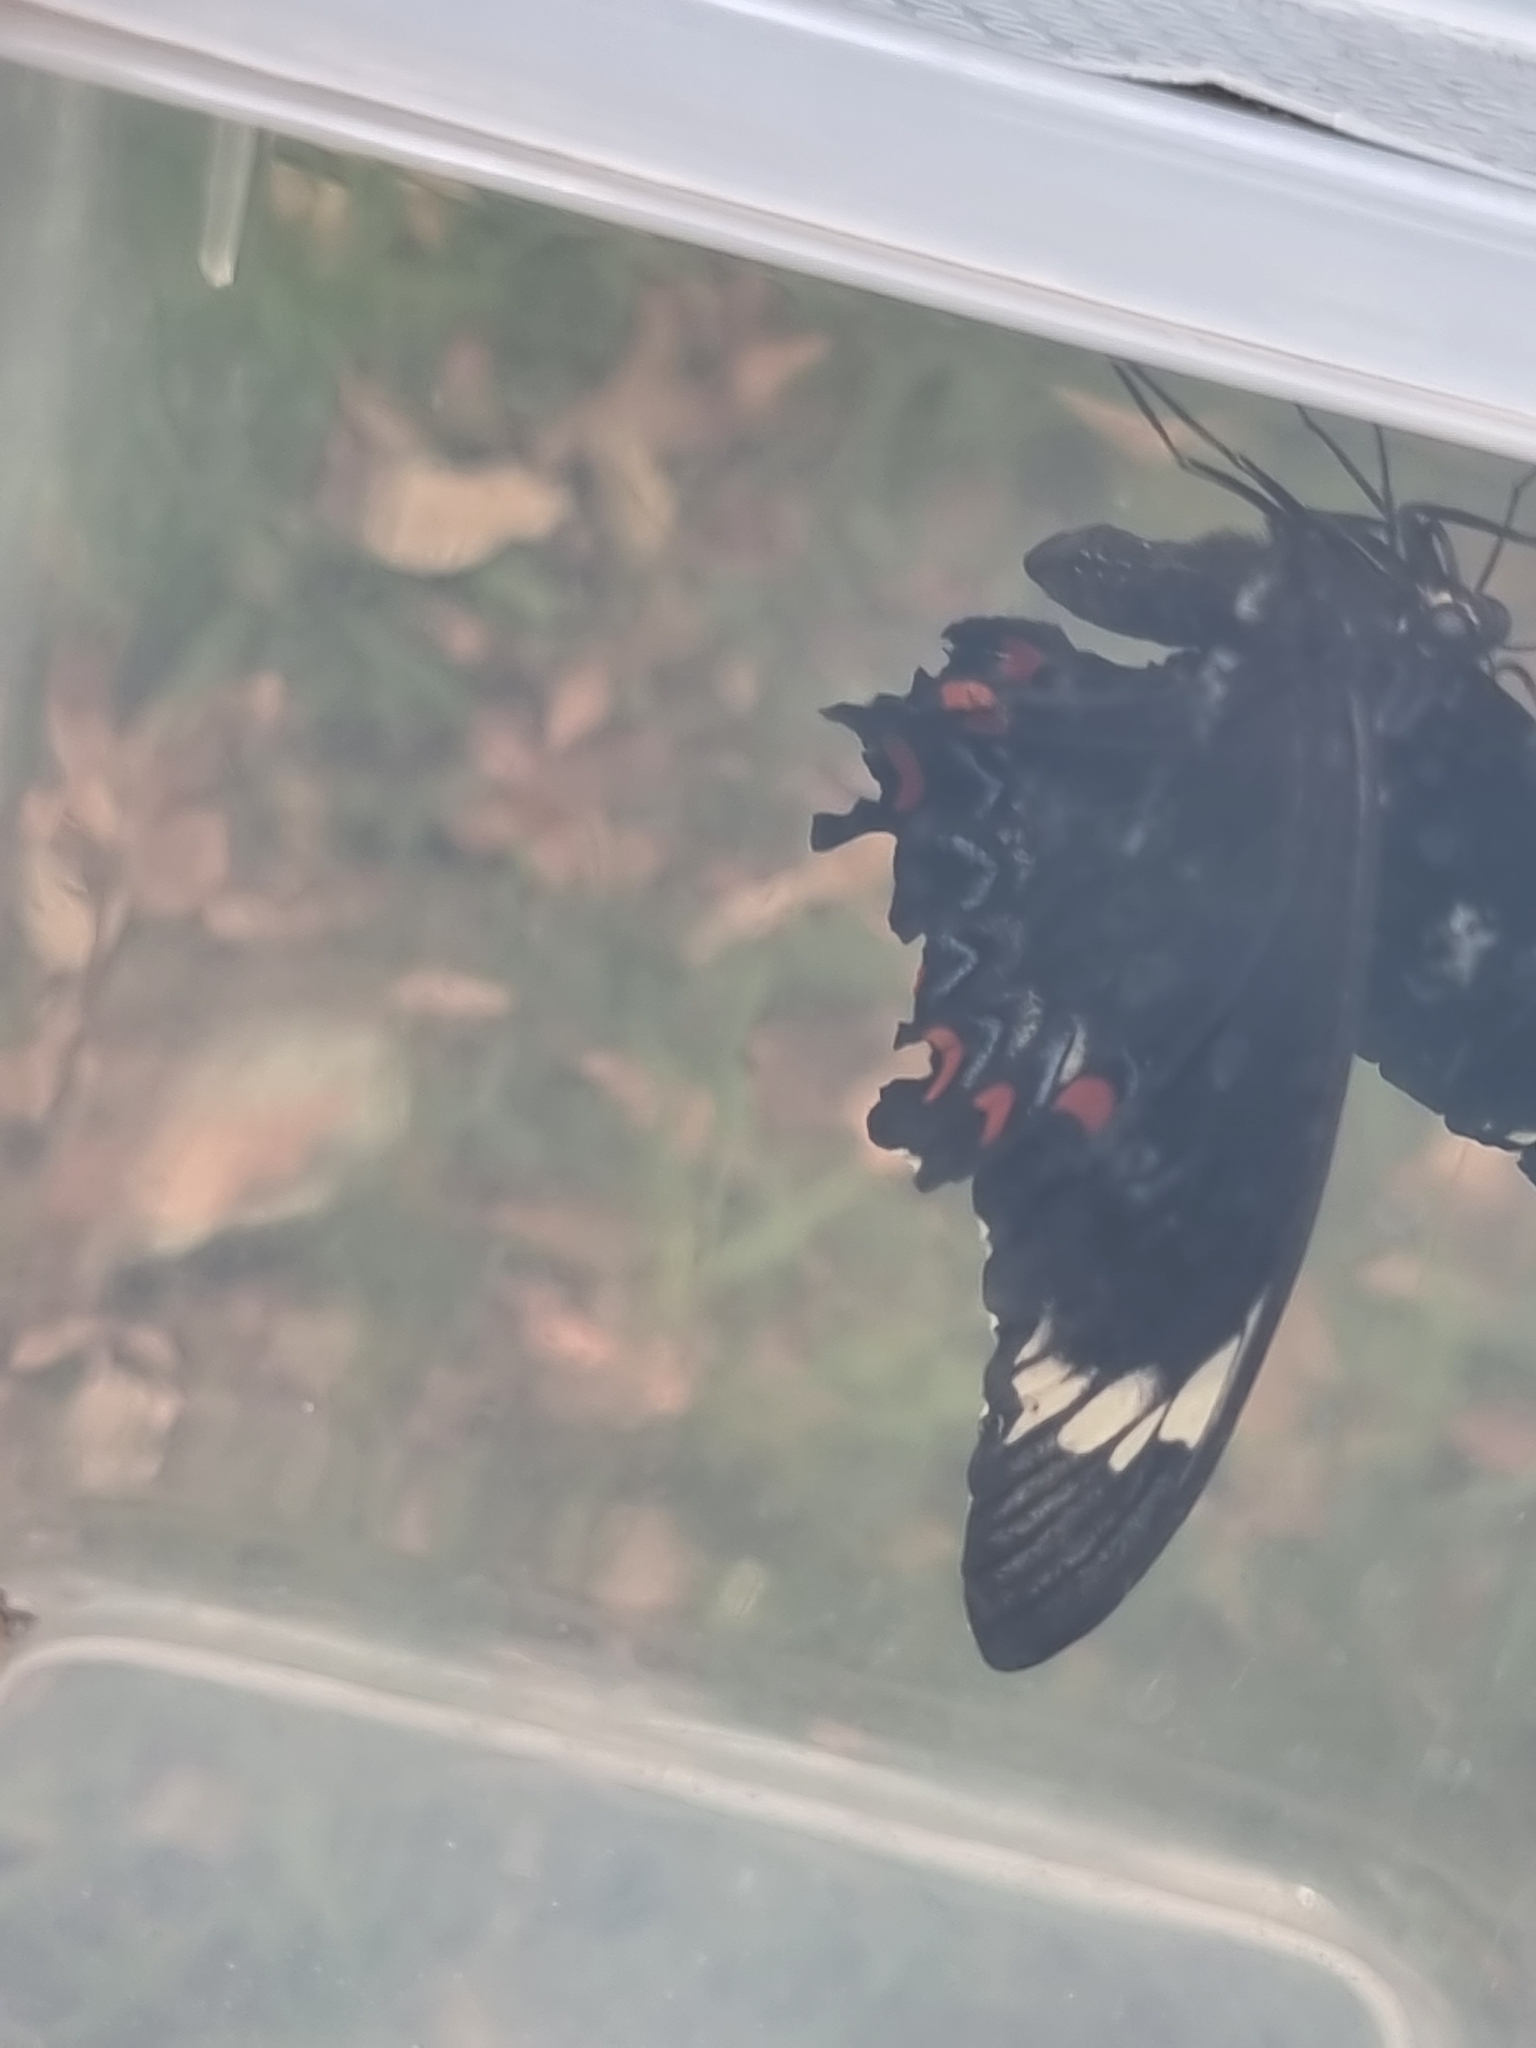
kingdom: Animalia
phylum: Arthropoda
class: Insecta
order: Lepidoptera
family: Papilionidae
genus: Papilio
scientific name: Papilio aegeus
